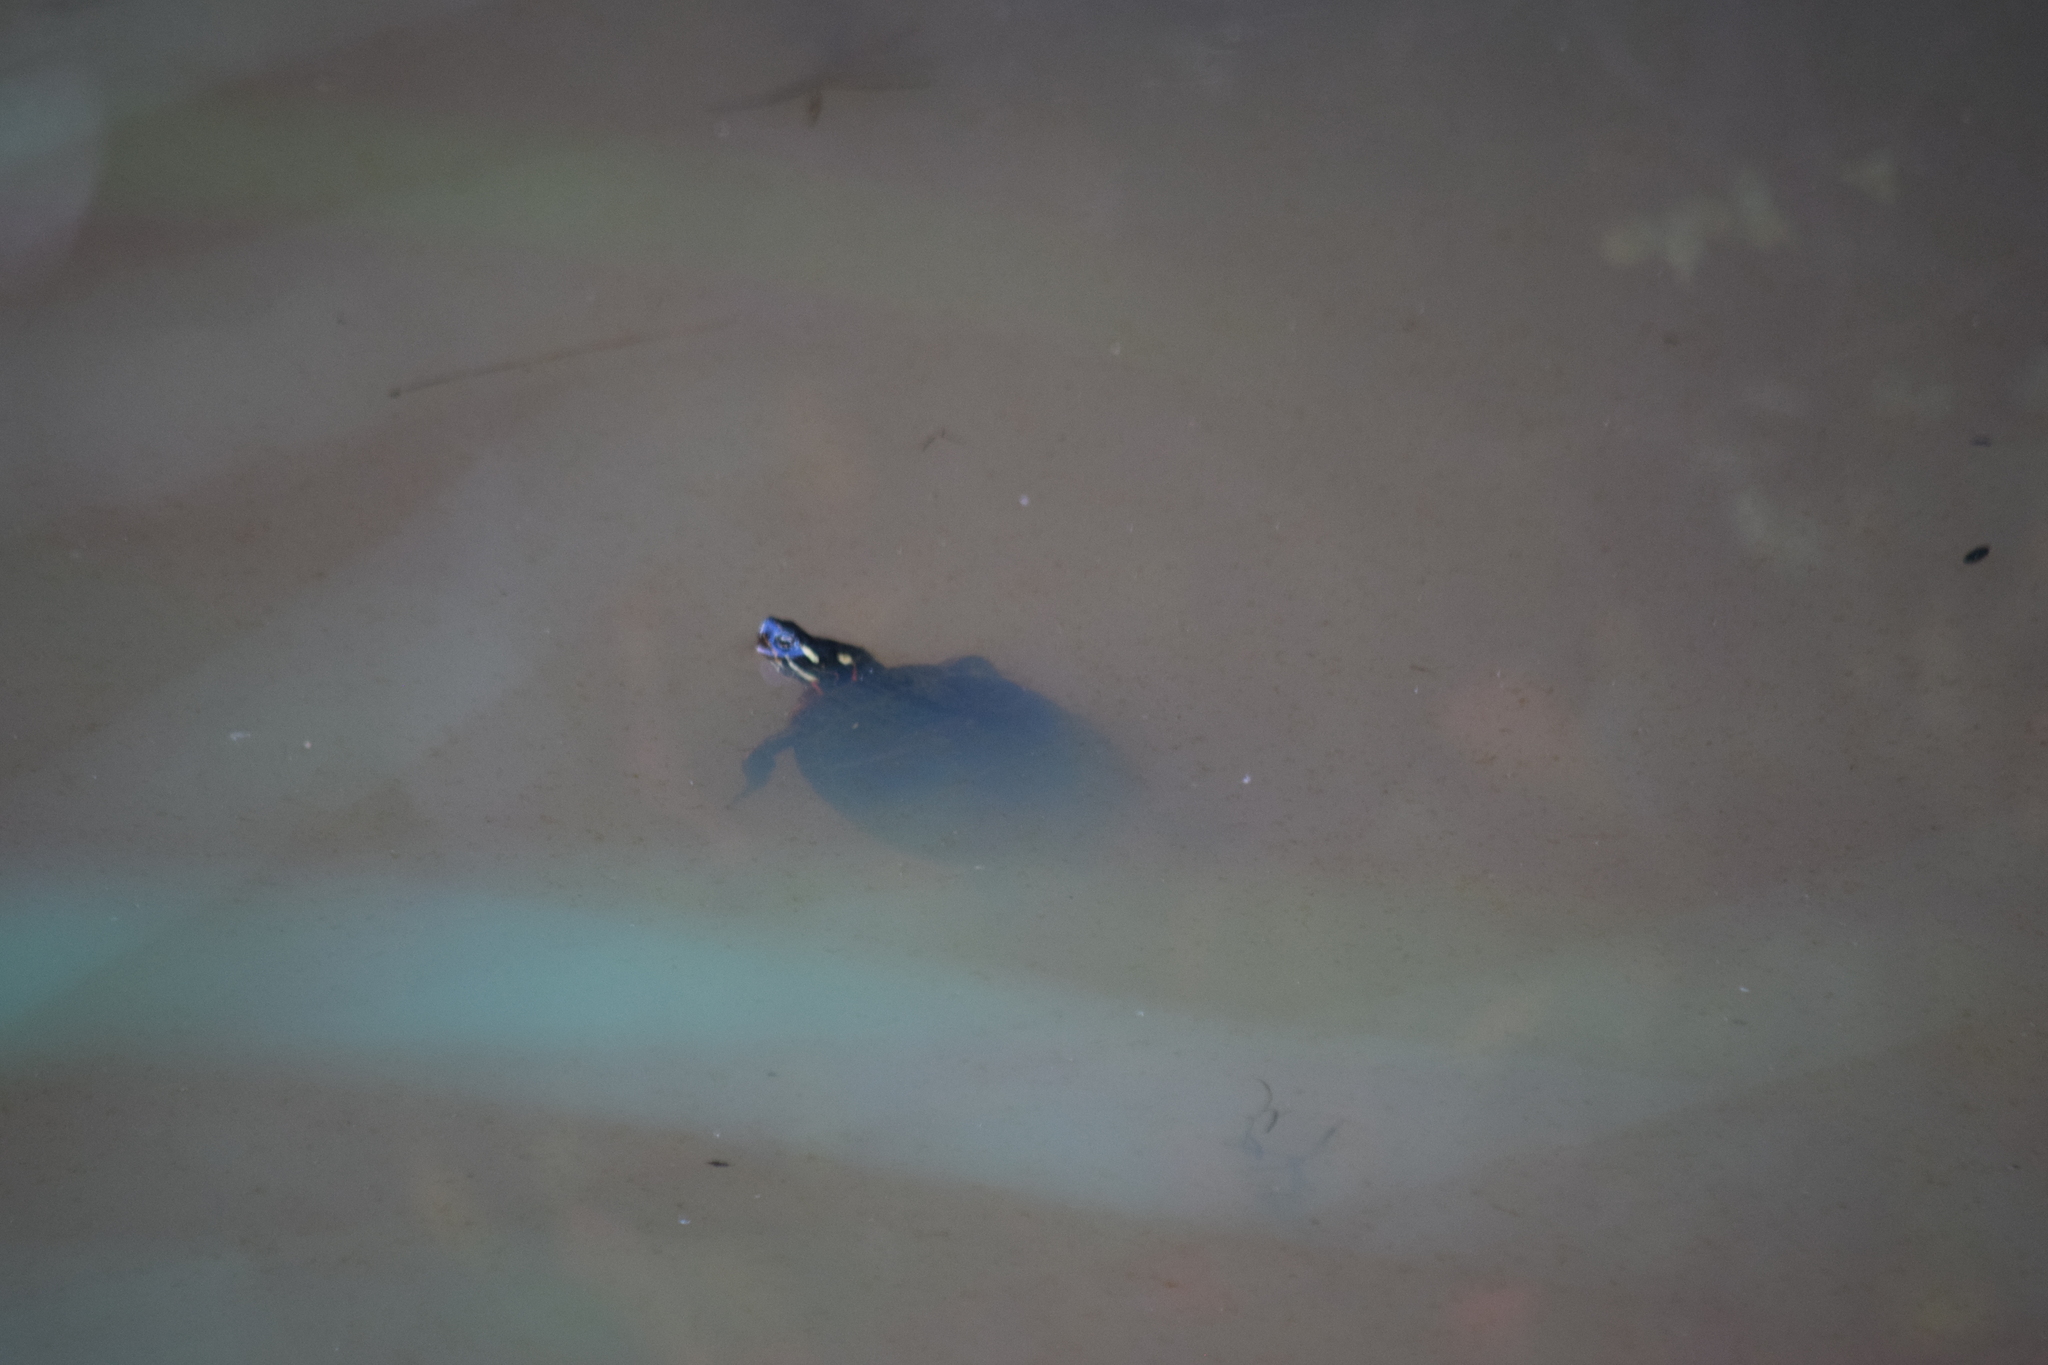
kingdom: Animalia
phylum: Chordata
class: Testudines
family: Emydidae
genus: Chrysemys
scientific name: Chrysemys picta
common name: Painted turtle
